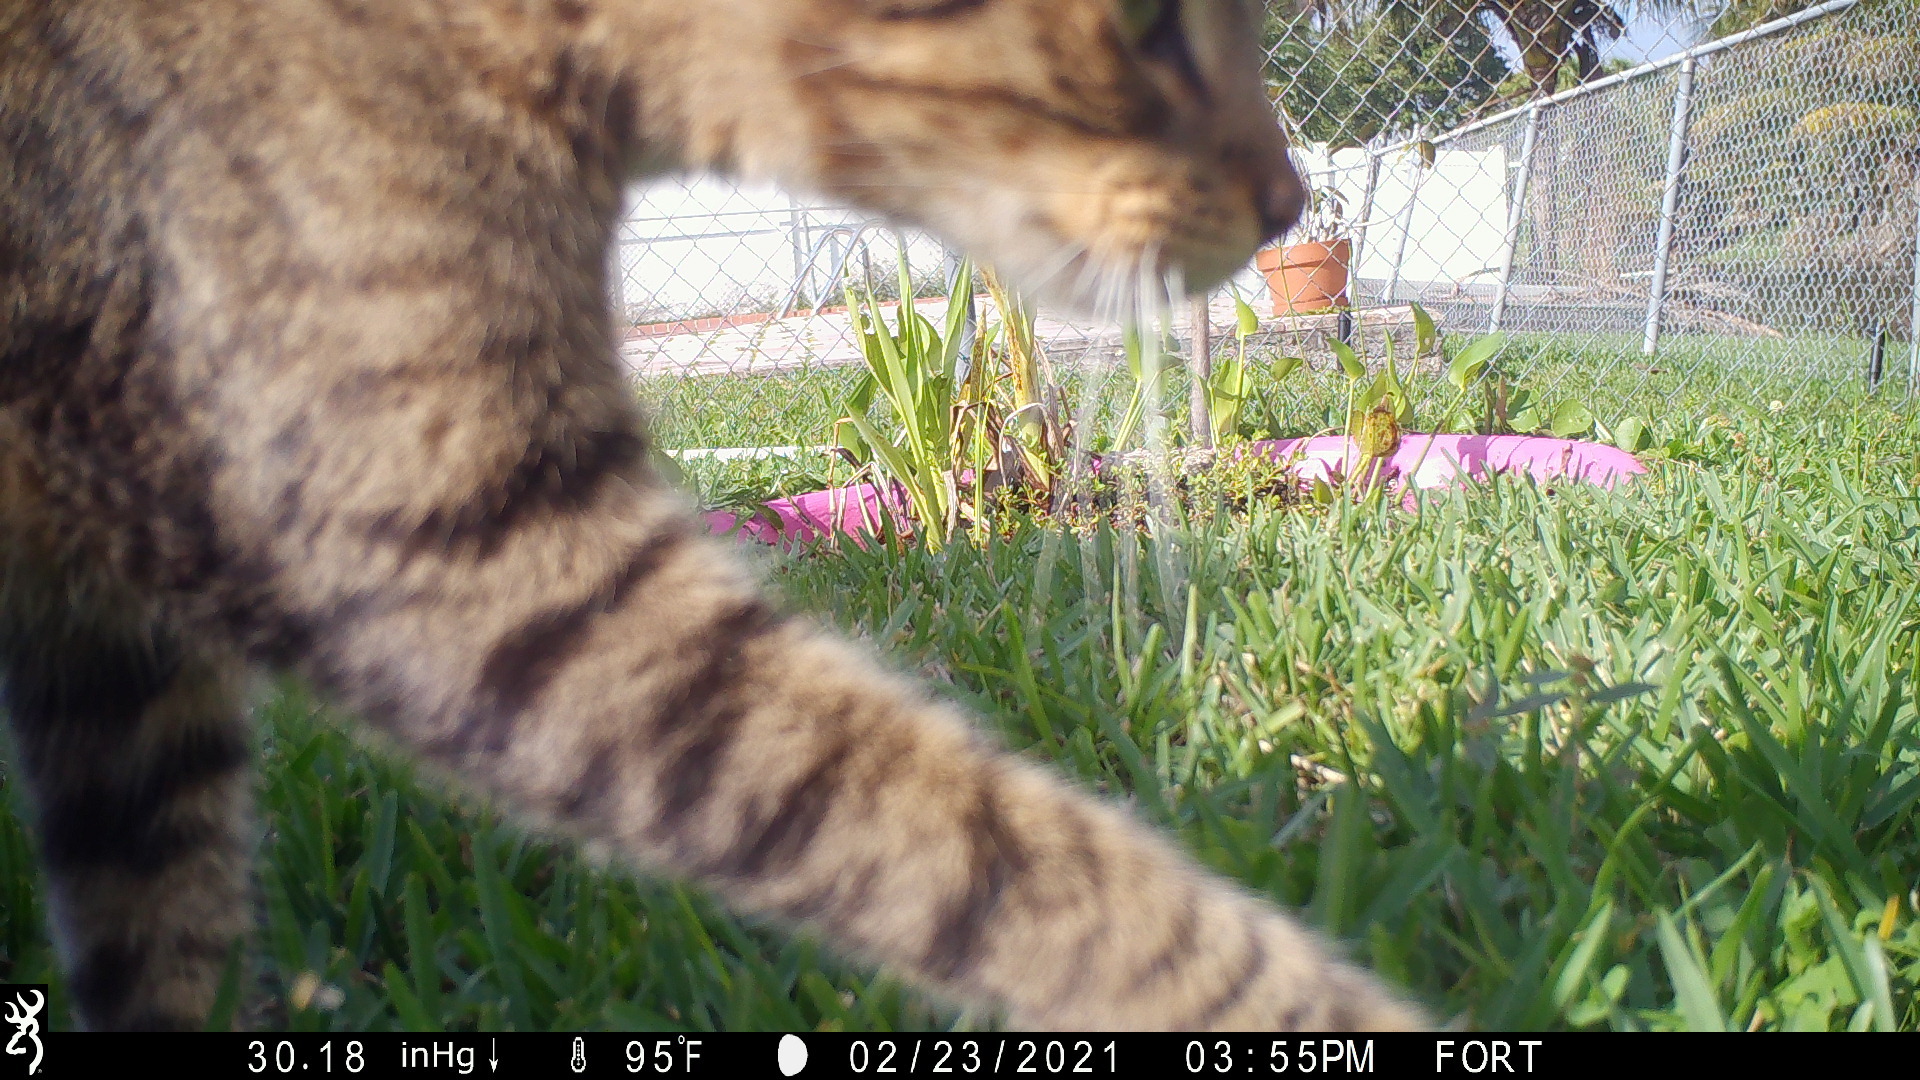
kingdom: Animalia
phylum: Chordata
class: Mammalia
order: Carnivora
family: Felidae
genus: Felis
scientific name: Felis catus
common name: Domestic cat
